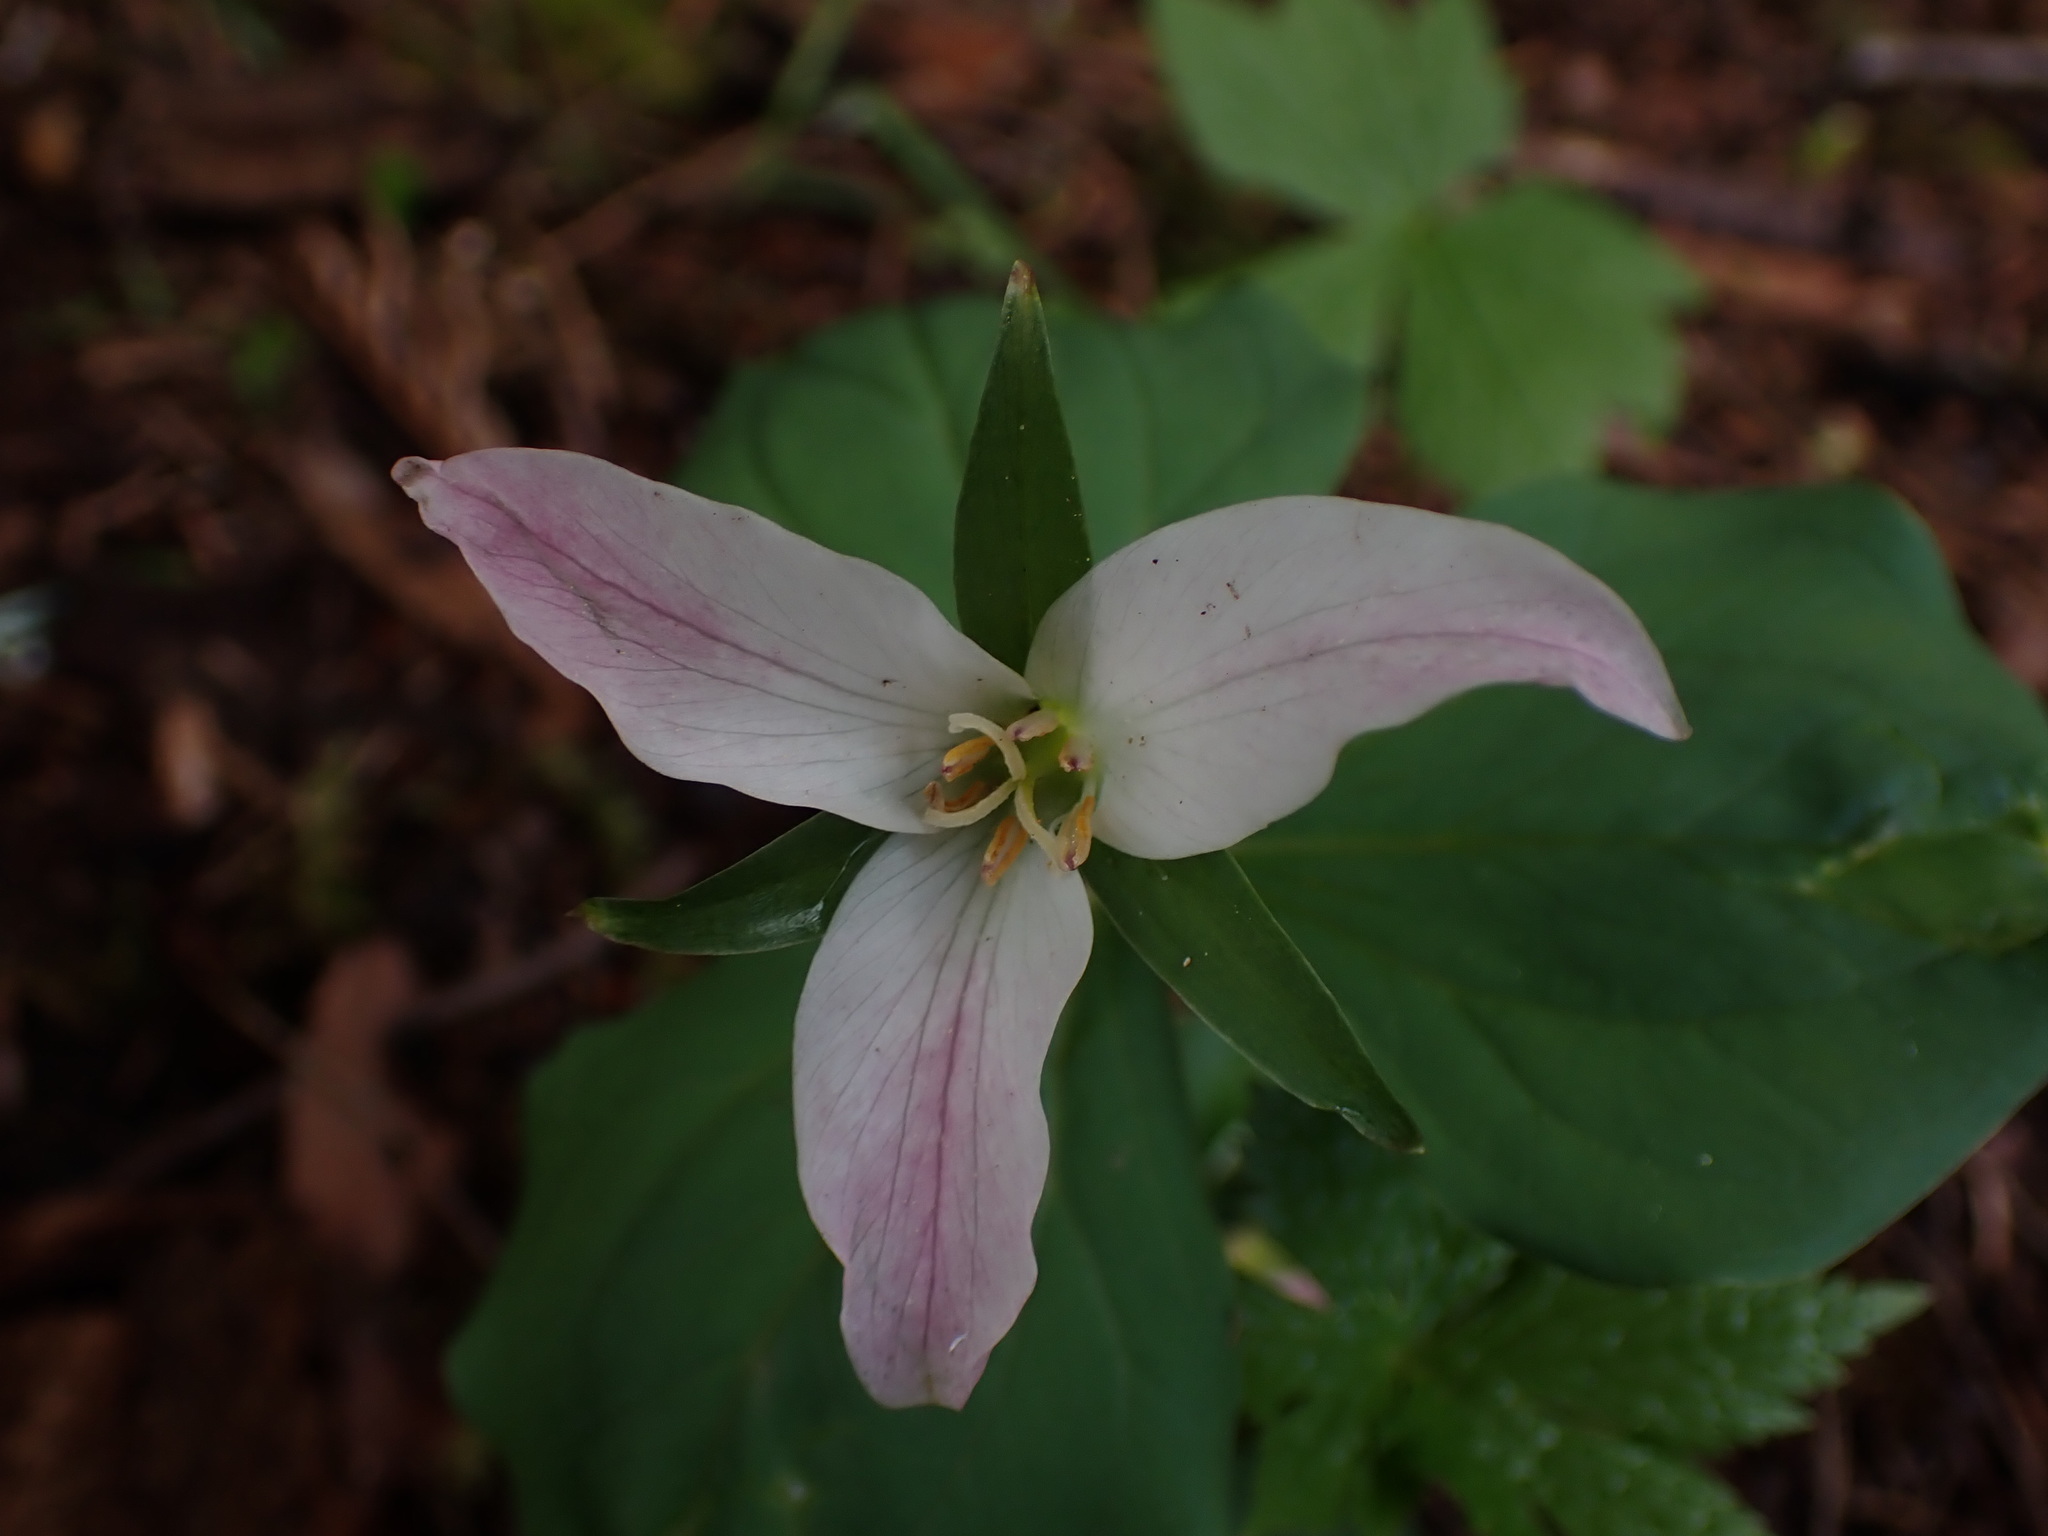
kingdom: Plantae
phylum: Tracheophyta
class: Liliopsida
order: Liliales
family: Melanthiaceae
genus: Trillium
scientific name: Trillium ovatum
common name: Pacific trillium
